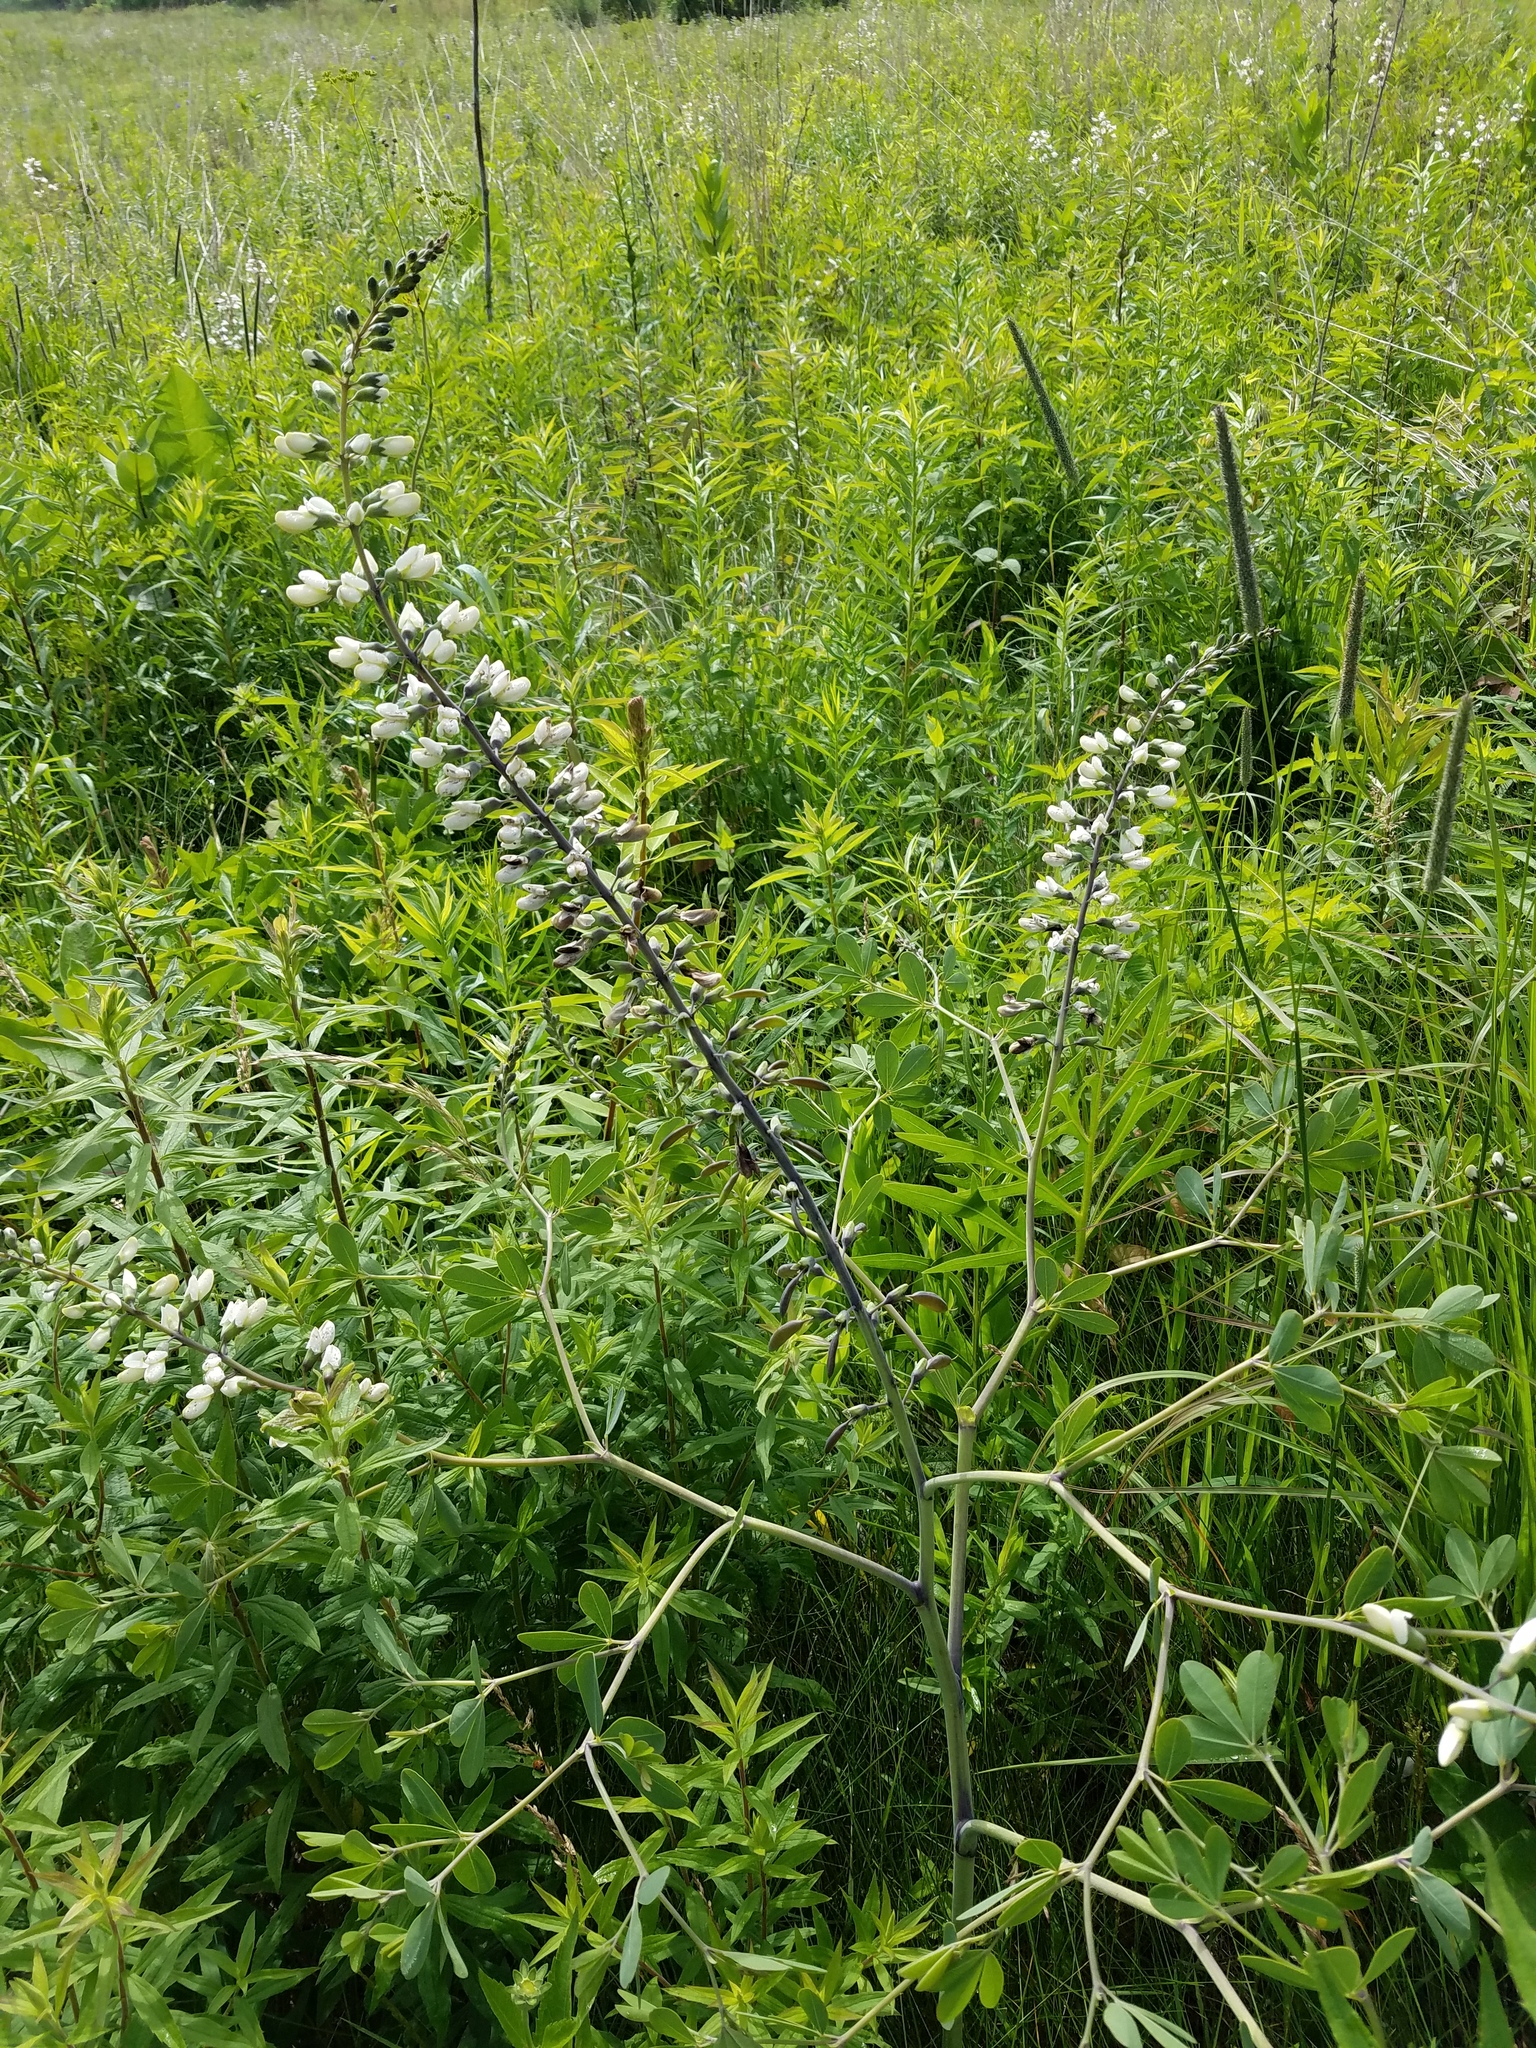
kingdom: Plantae
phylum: Tracheophyta
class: Magnoliopsida
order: Fabales
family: Fabaceae
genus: Baptisia
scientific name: Baptisia alba
